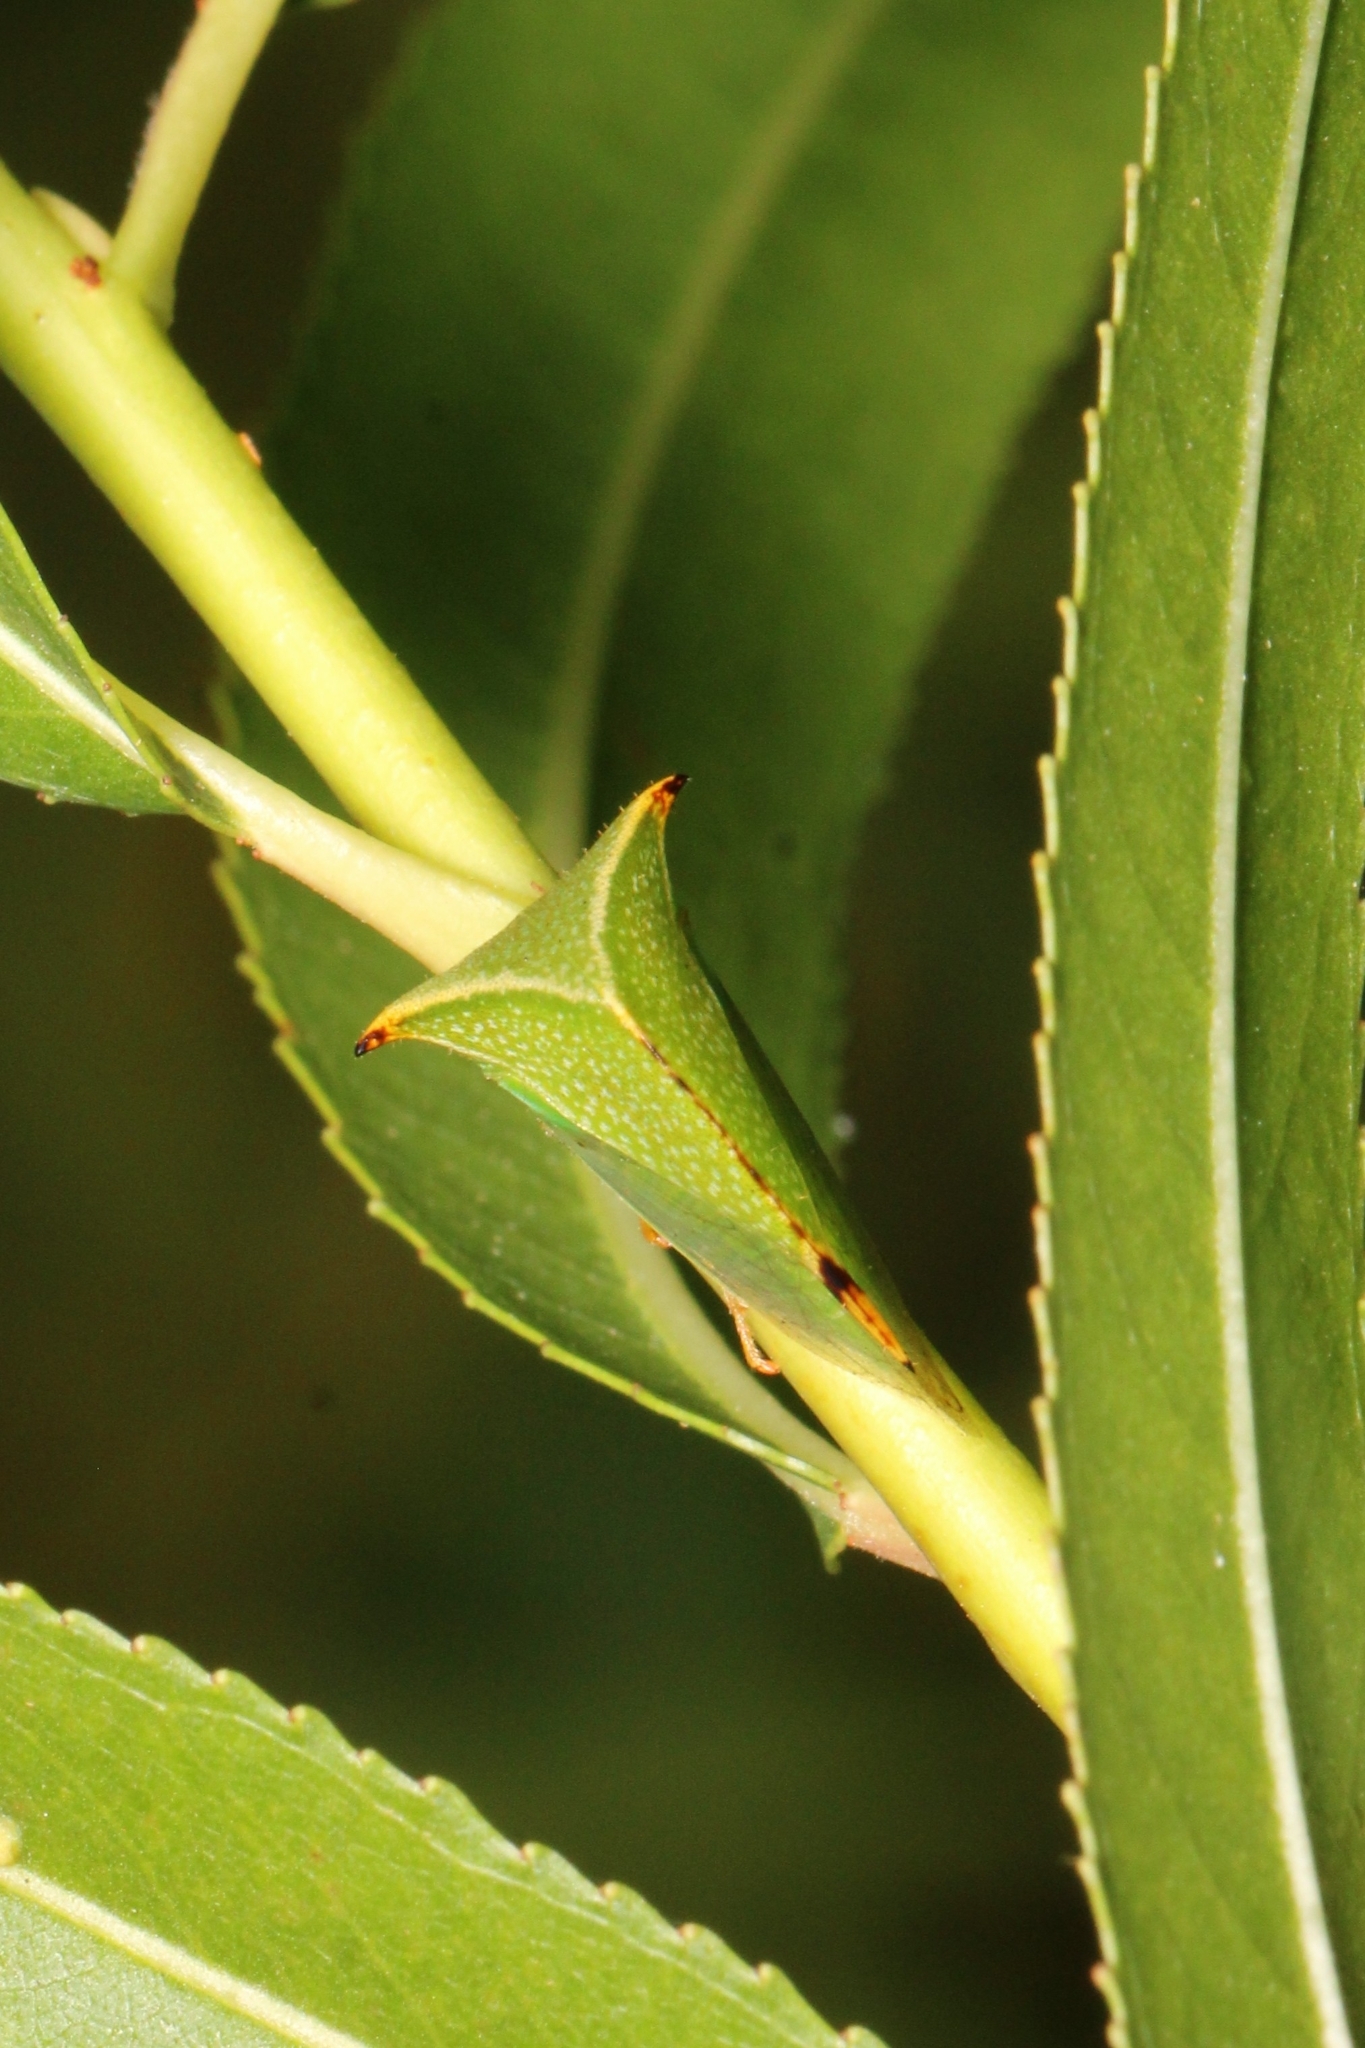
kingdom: Animalia
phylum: Arthropoda
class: Insecta
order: Hemiptera
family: Membracidae
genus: Stictocephala
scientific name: Stictocephala bisonia
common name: American buffalo treehopper
